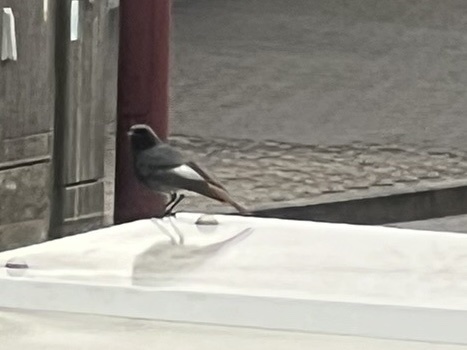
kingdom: Animalia
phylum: Chordata
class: Aves
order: Passeriformes
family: Muscicapidae
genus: Phoenicurus
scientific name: Phoenicurus ochruros
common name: Black redstart
